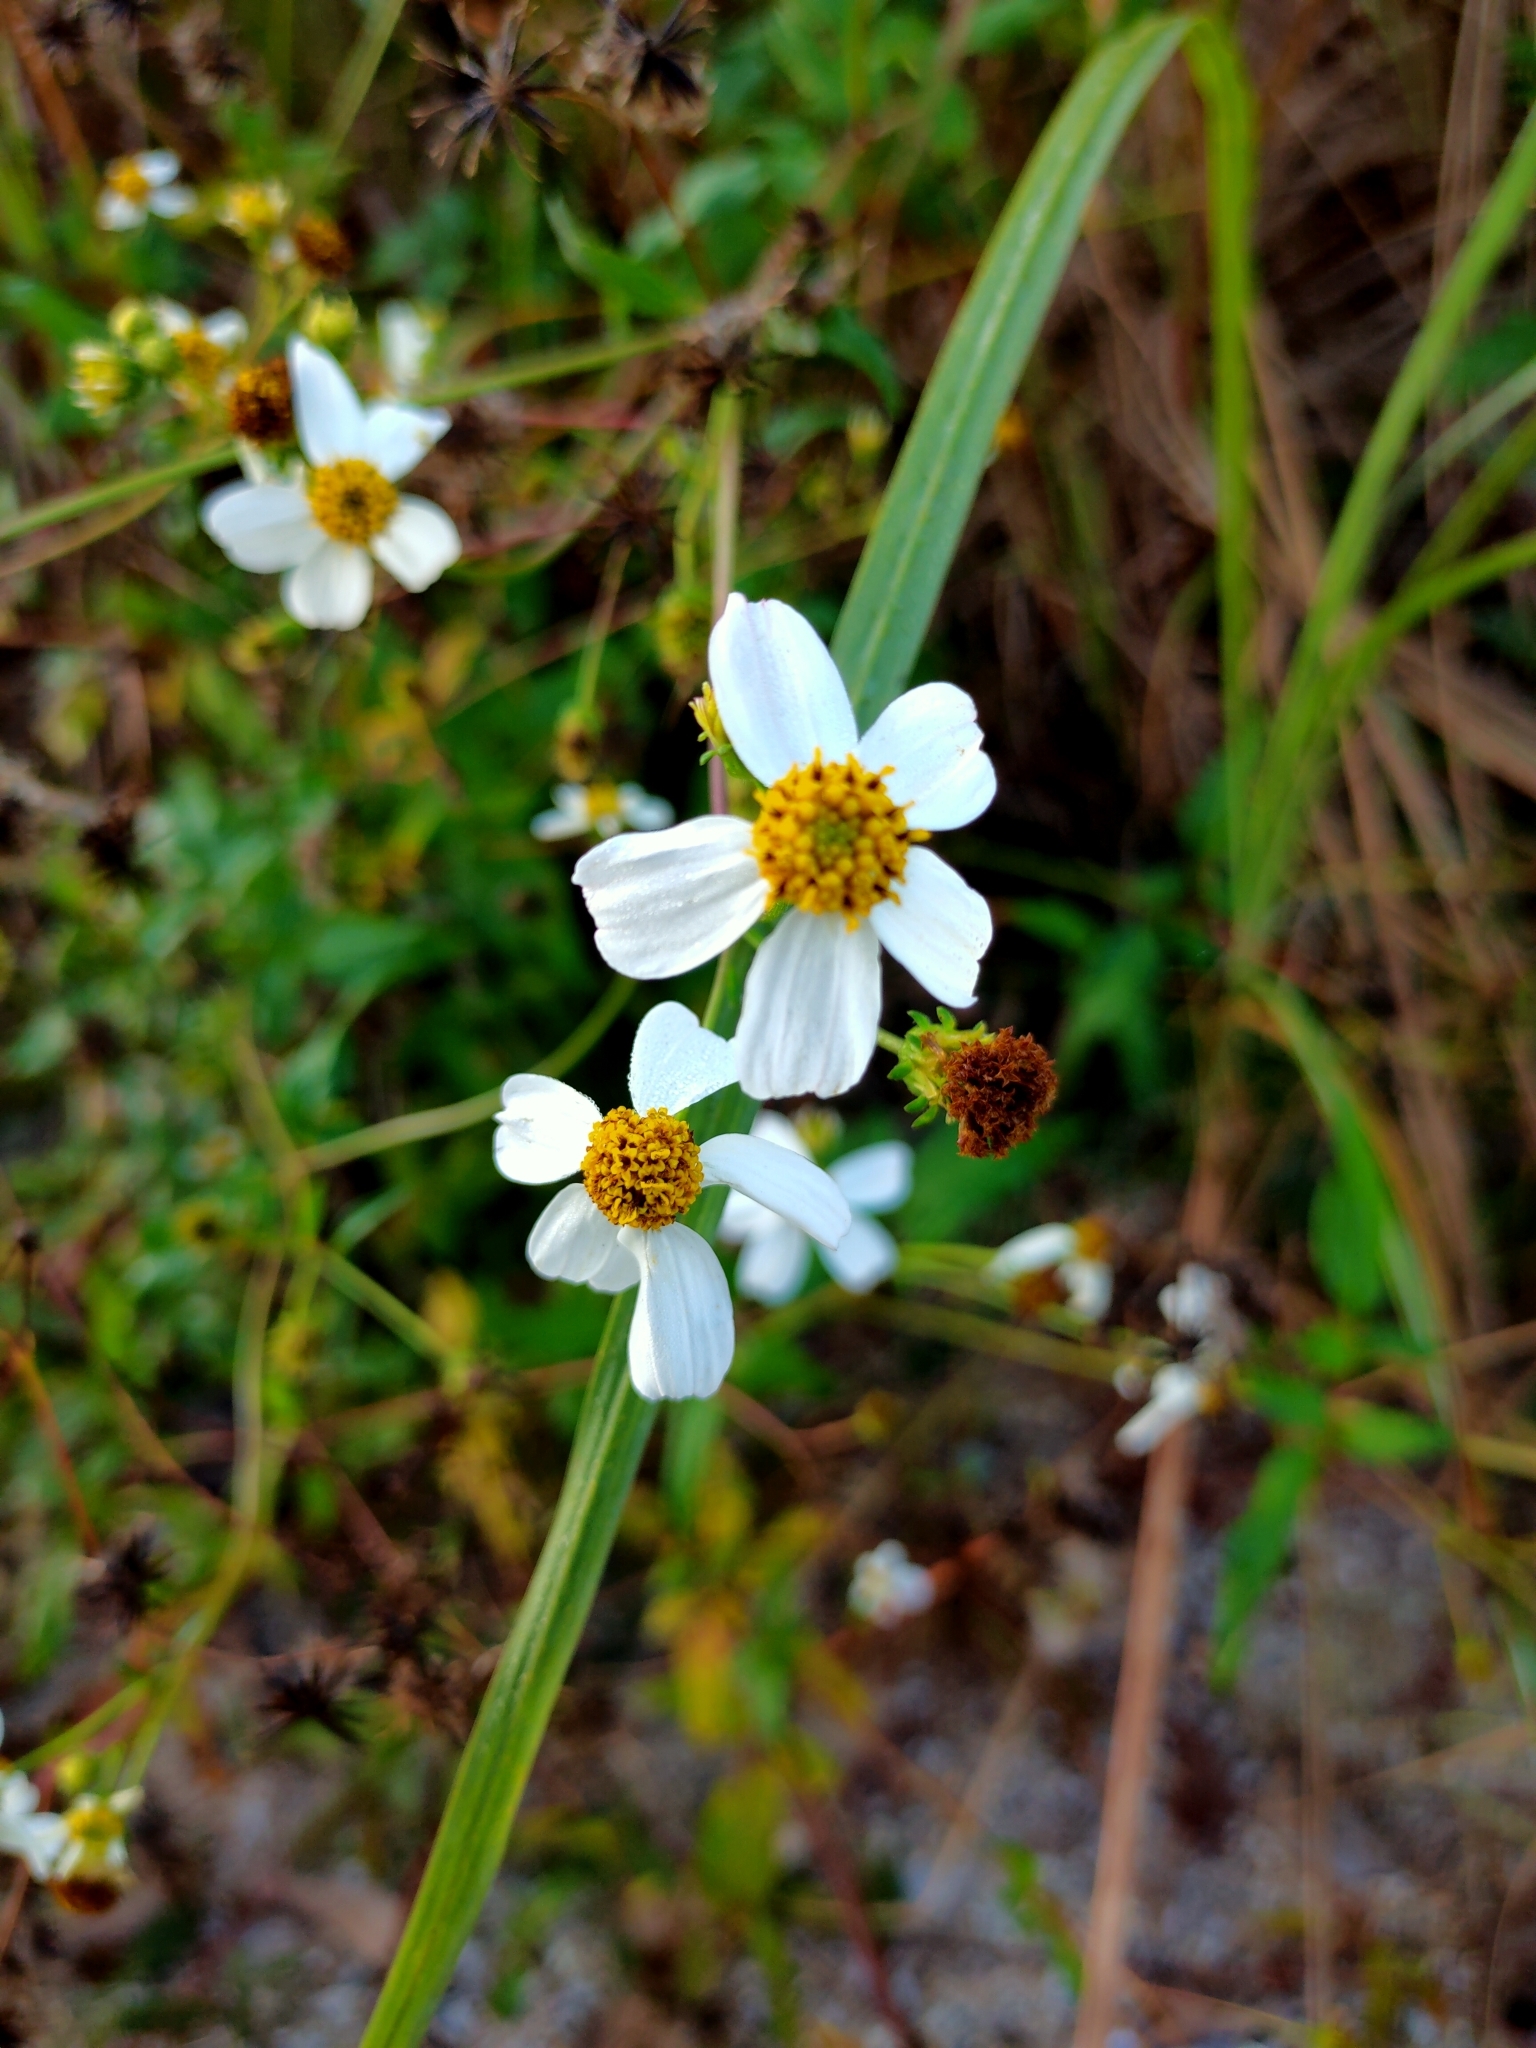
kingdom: Plantae
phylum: Tracheophyta
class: Magnoliopsida
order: Asterales
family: Asteraceae
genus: Bidens
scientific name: Bidens pilosa
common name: Black-jack
